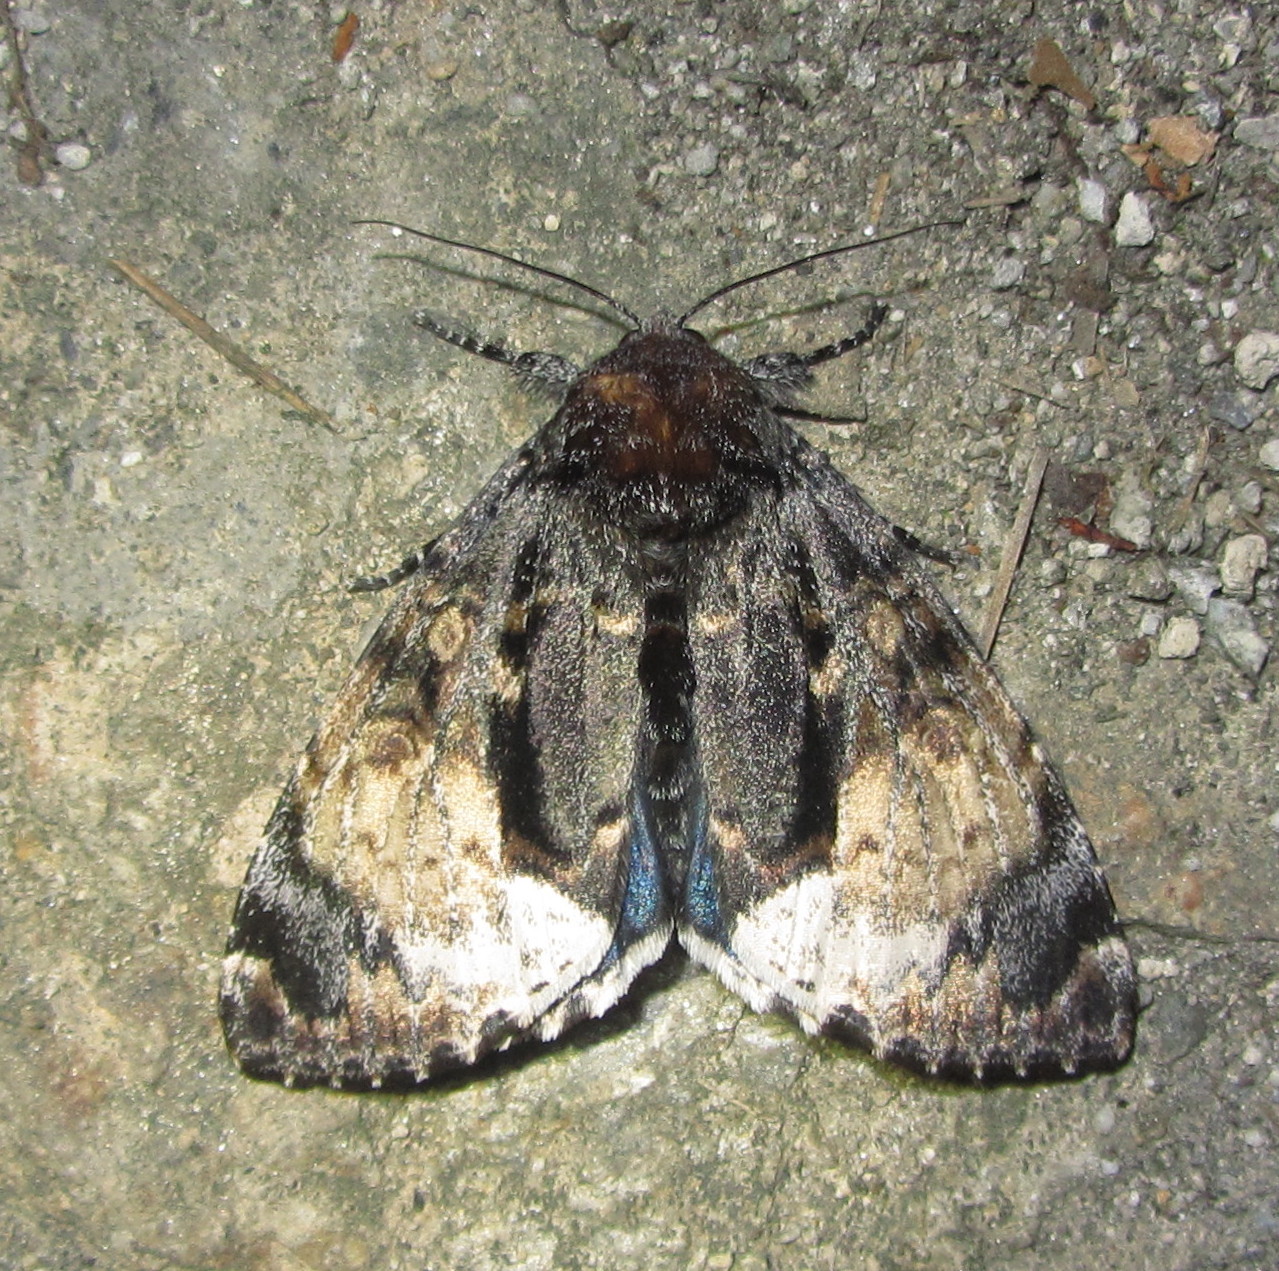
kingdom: Animalia
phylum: Arthropoda
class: Insecta
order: Lepidoptera
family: Noctuidae
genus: Disepholcia
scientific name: Disepholcia caerulea
